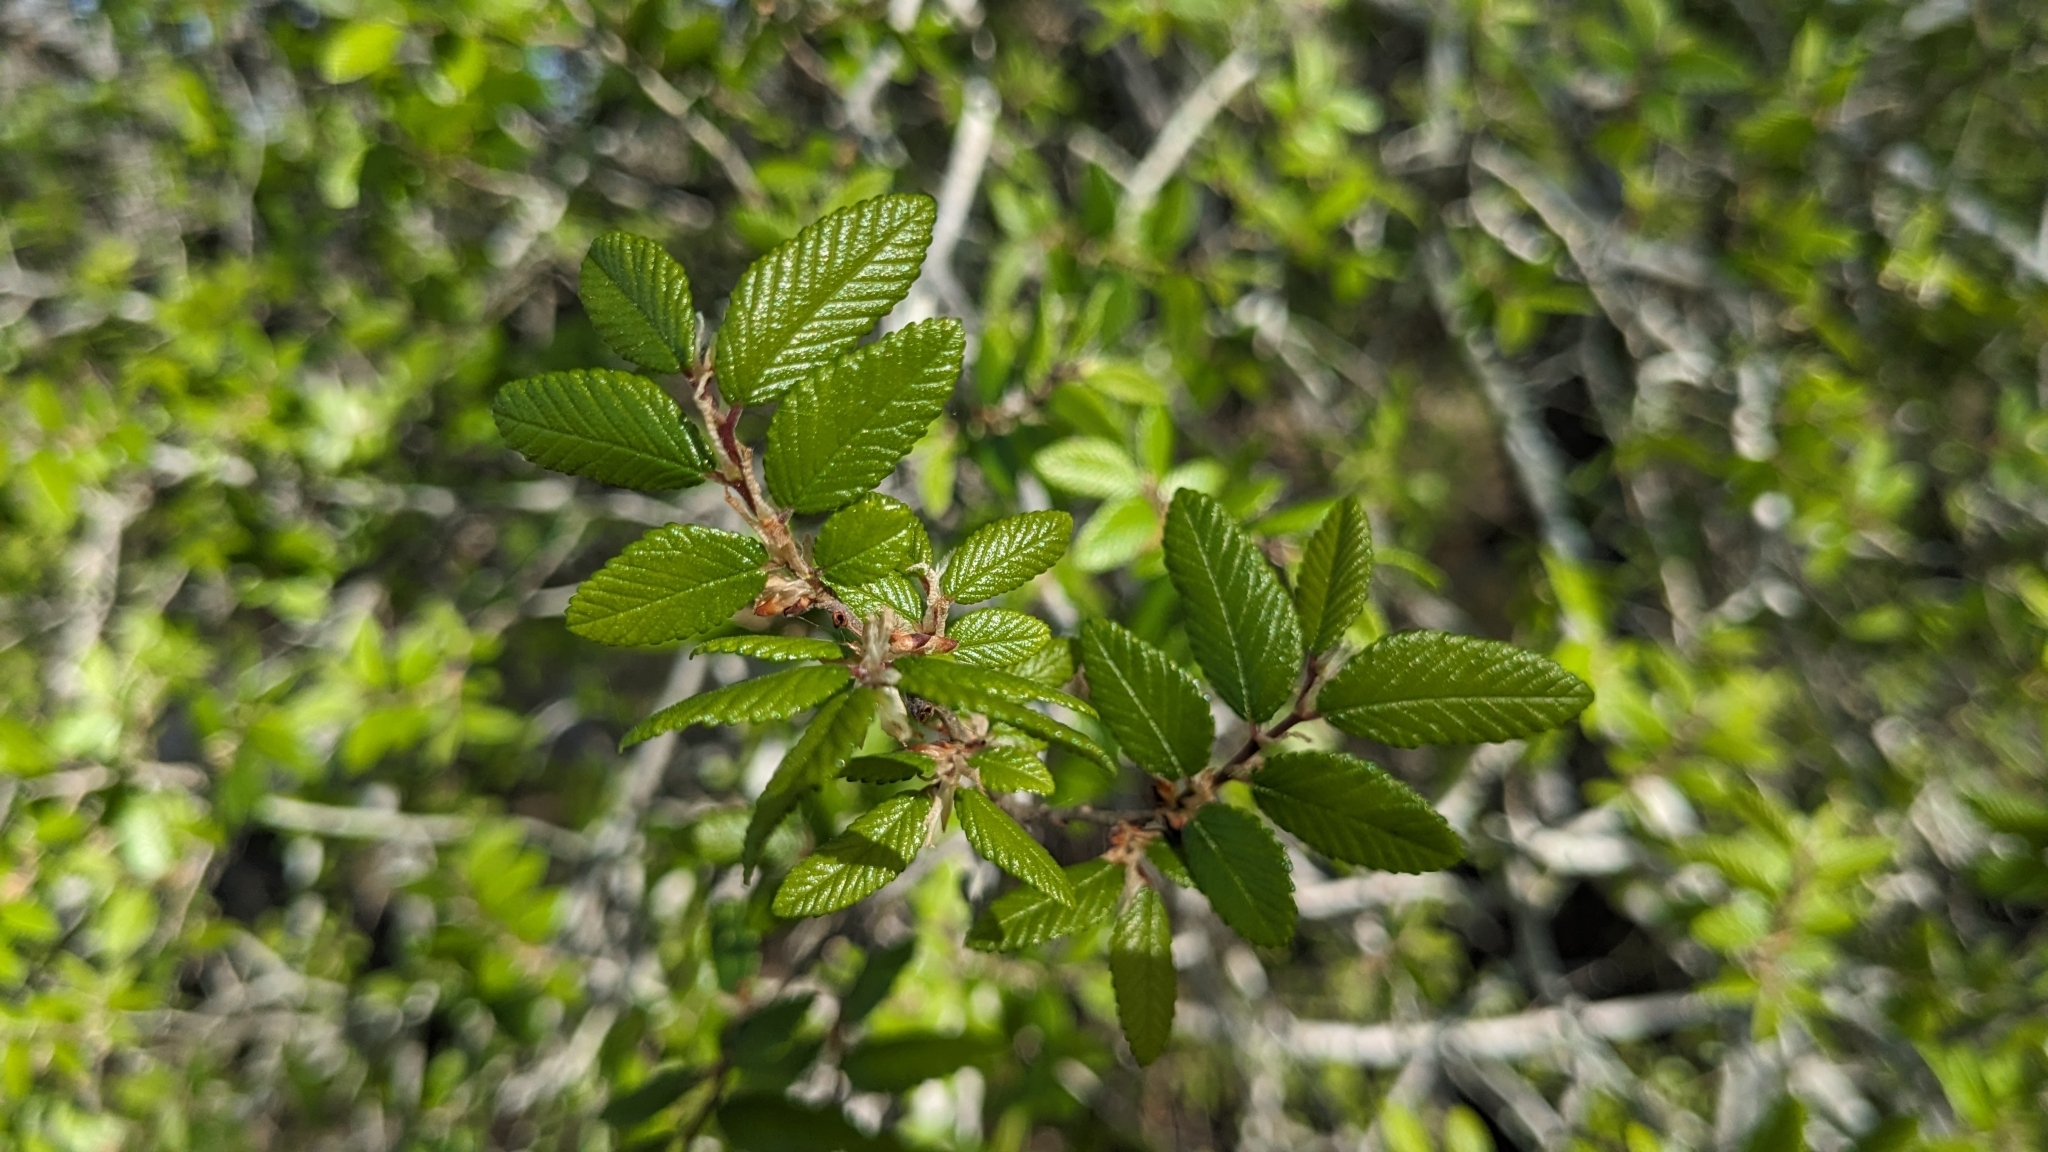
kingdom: Plantae
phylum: Tracheophyta
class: Magnoliopsida
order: Rosales
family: Ulmaceae
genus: Ulmus
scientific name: Ulmus crassifolia
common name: Basket elm
